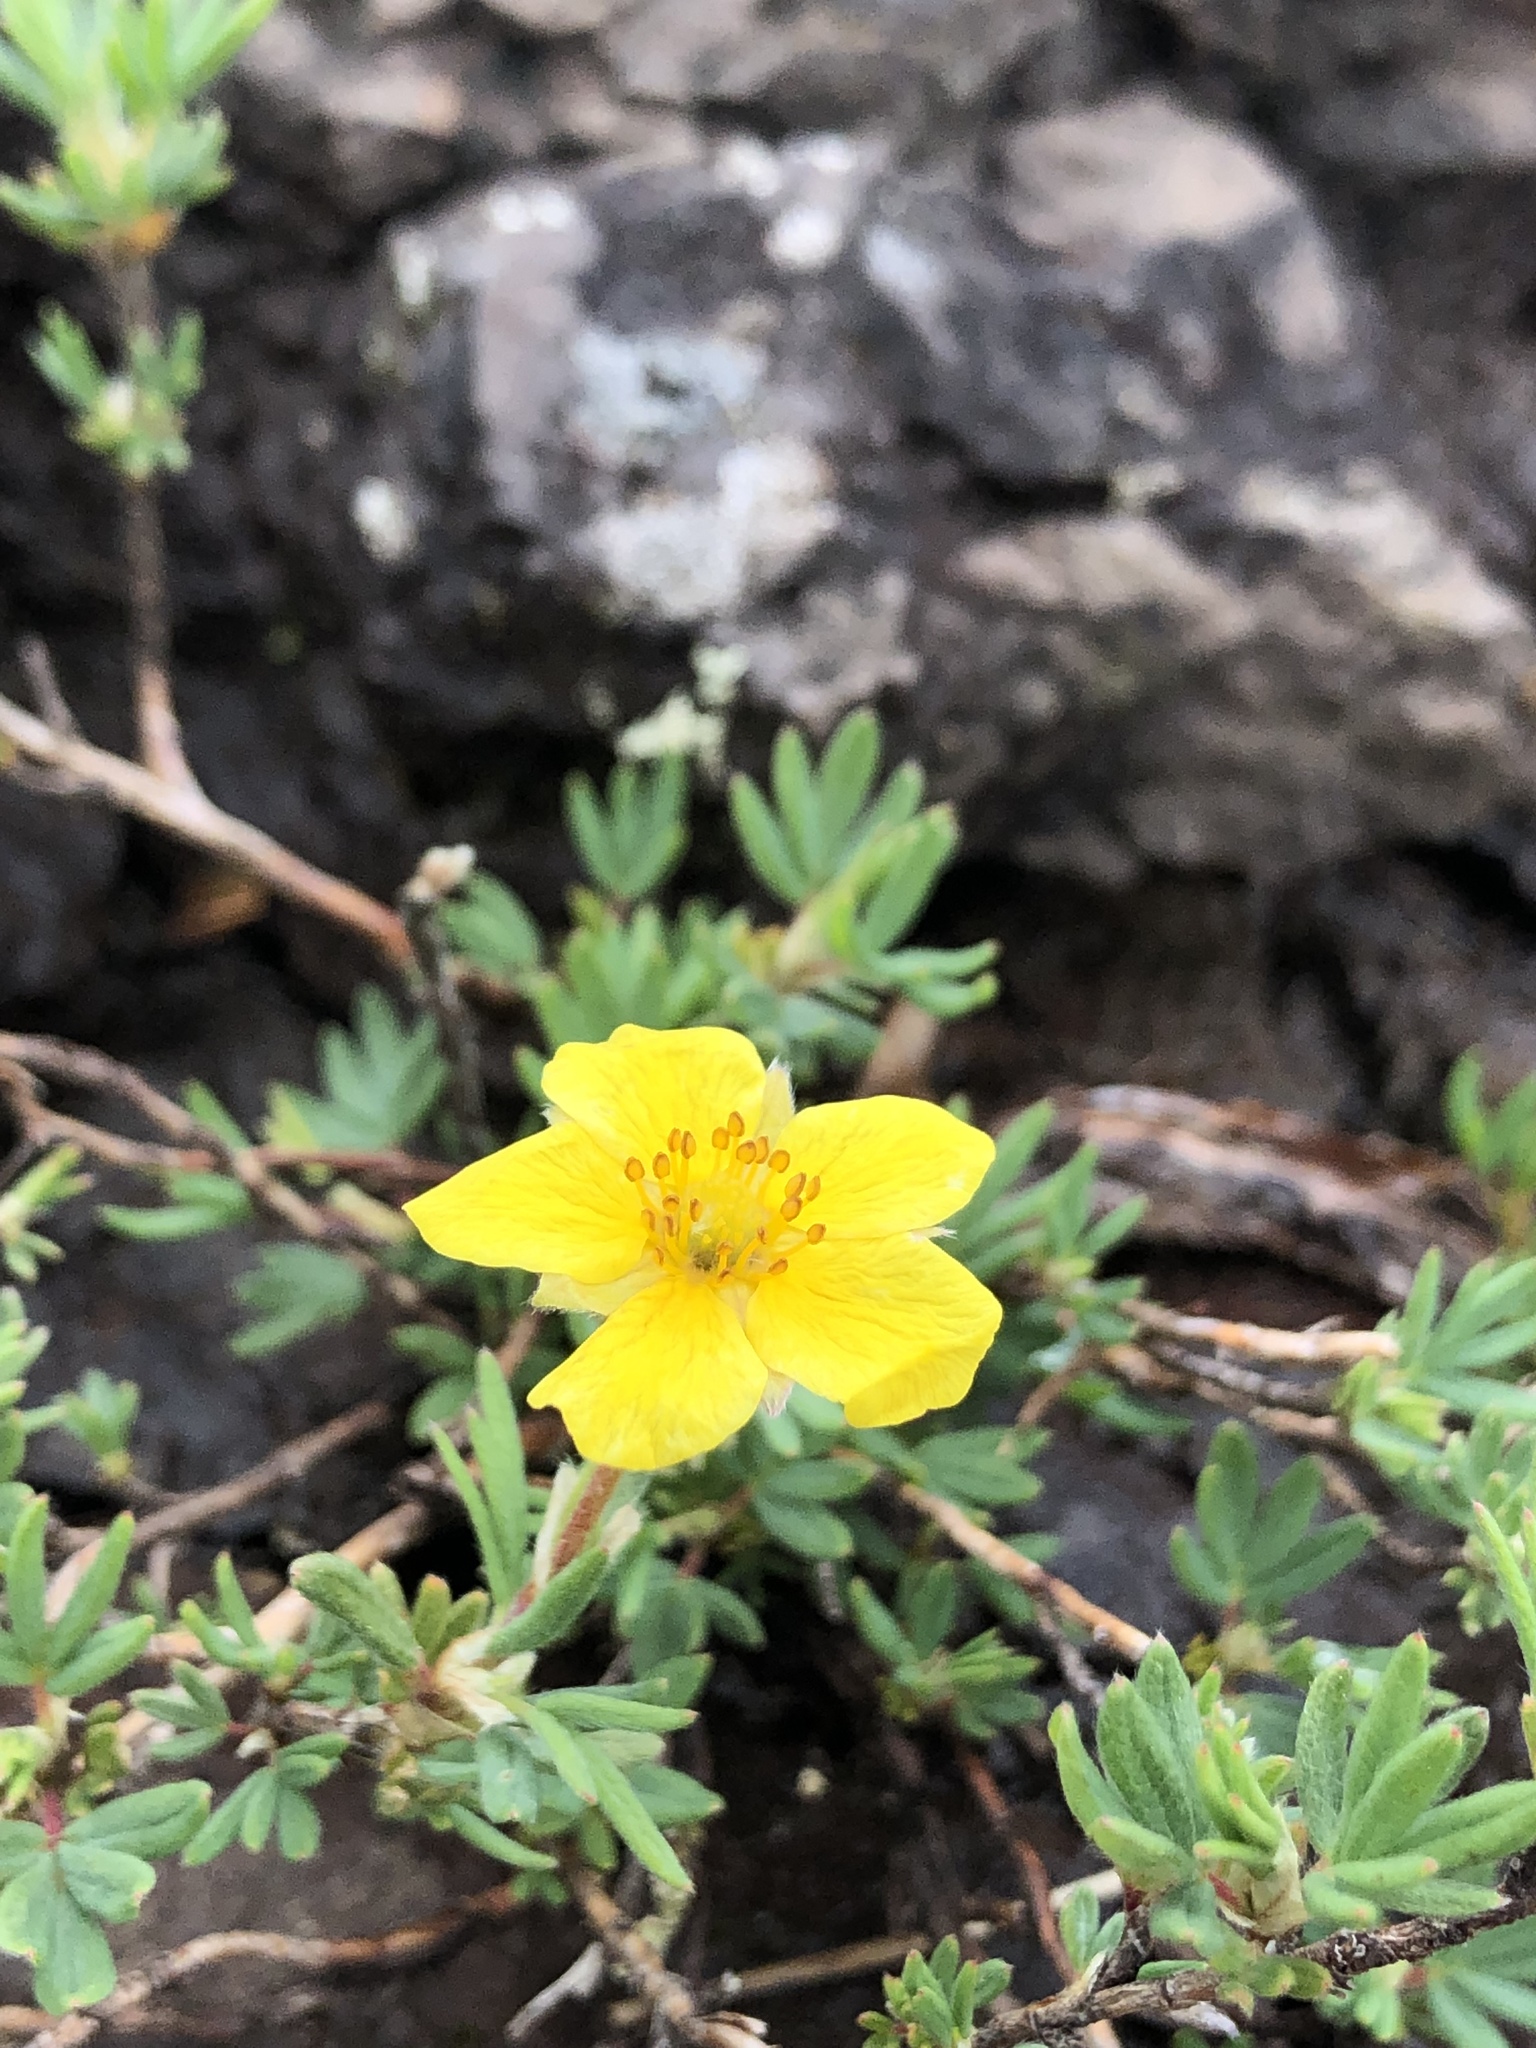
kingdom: Plantae
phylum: Tracheophyta
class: Magnoliopsida
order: Rosales
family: Rosaceae
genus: Dasiphora
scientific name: Dasiphora fruticosa
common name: Shrubby cinquefoil
